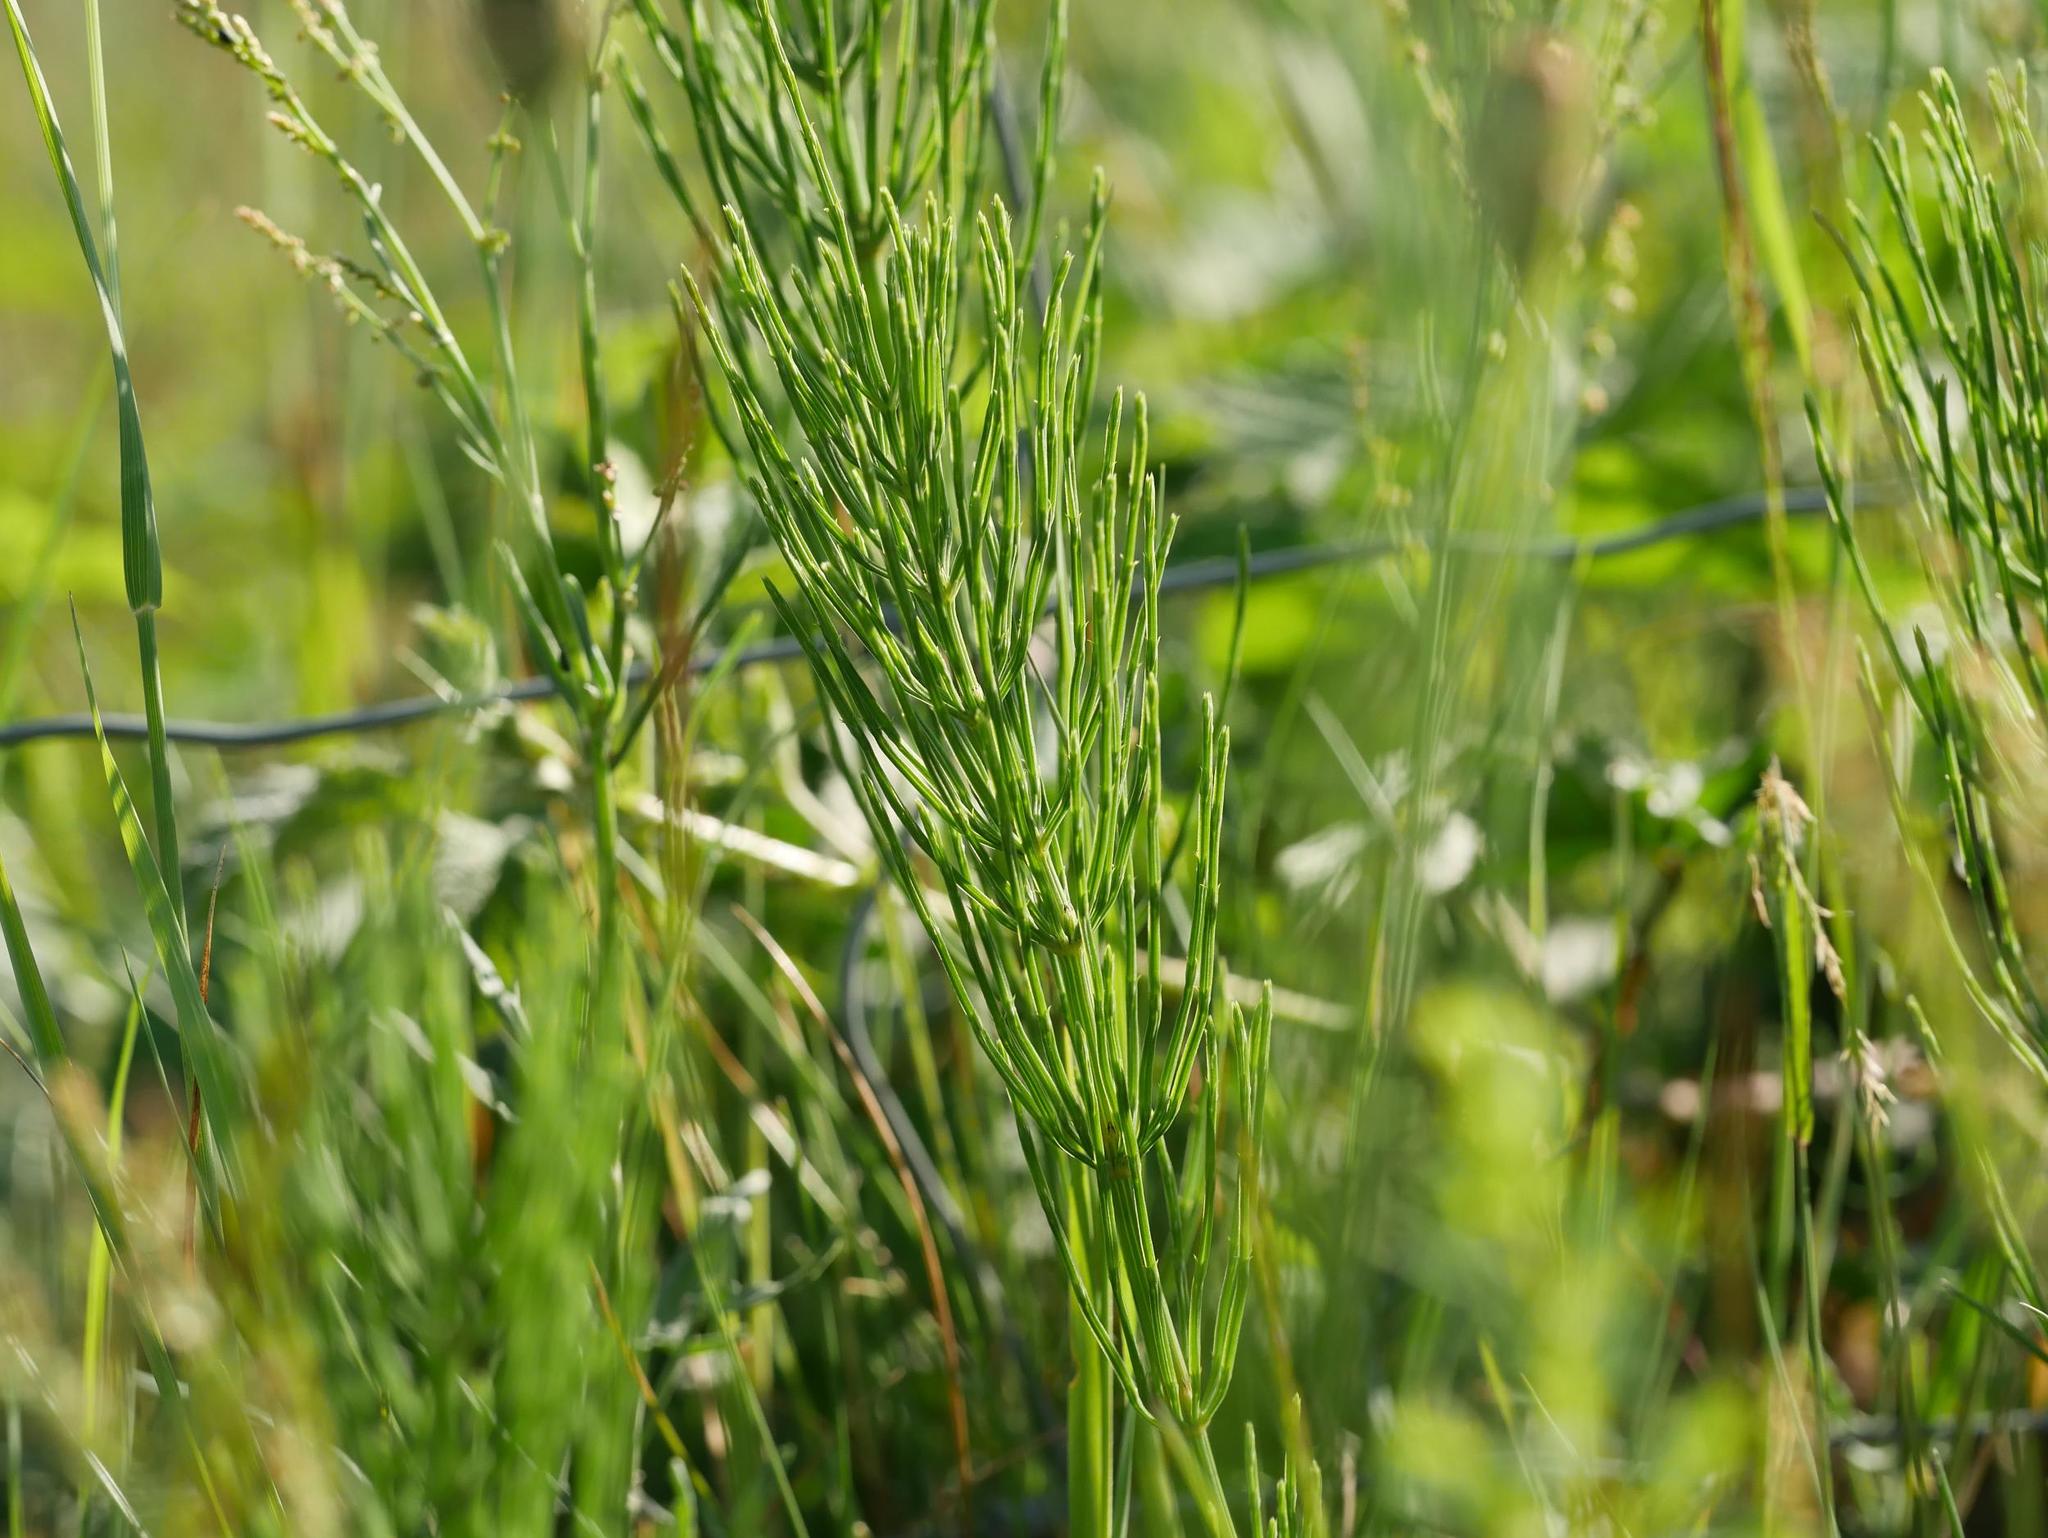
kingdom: Plantae
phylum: Tracheophyta
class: Polypodiopsida
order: Equisetales
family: Equisetaceae
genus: Equisetum
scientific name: Equisetum arvense
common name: Field horsetail
